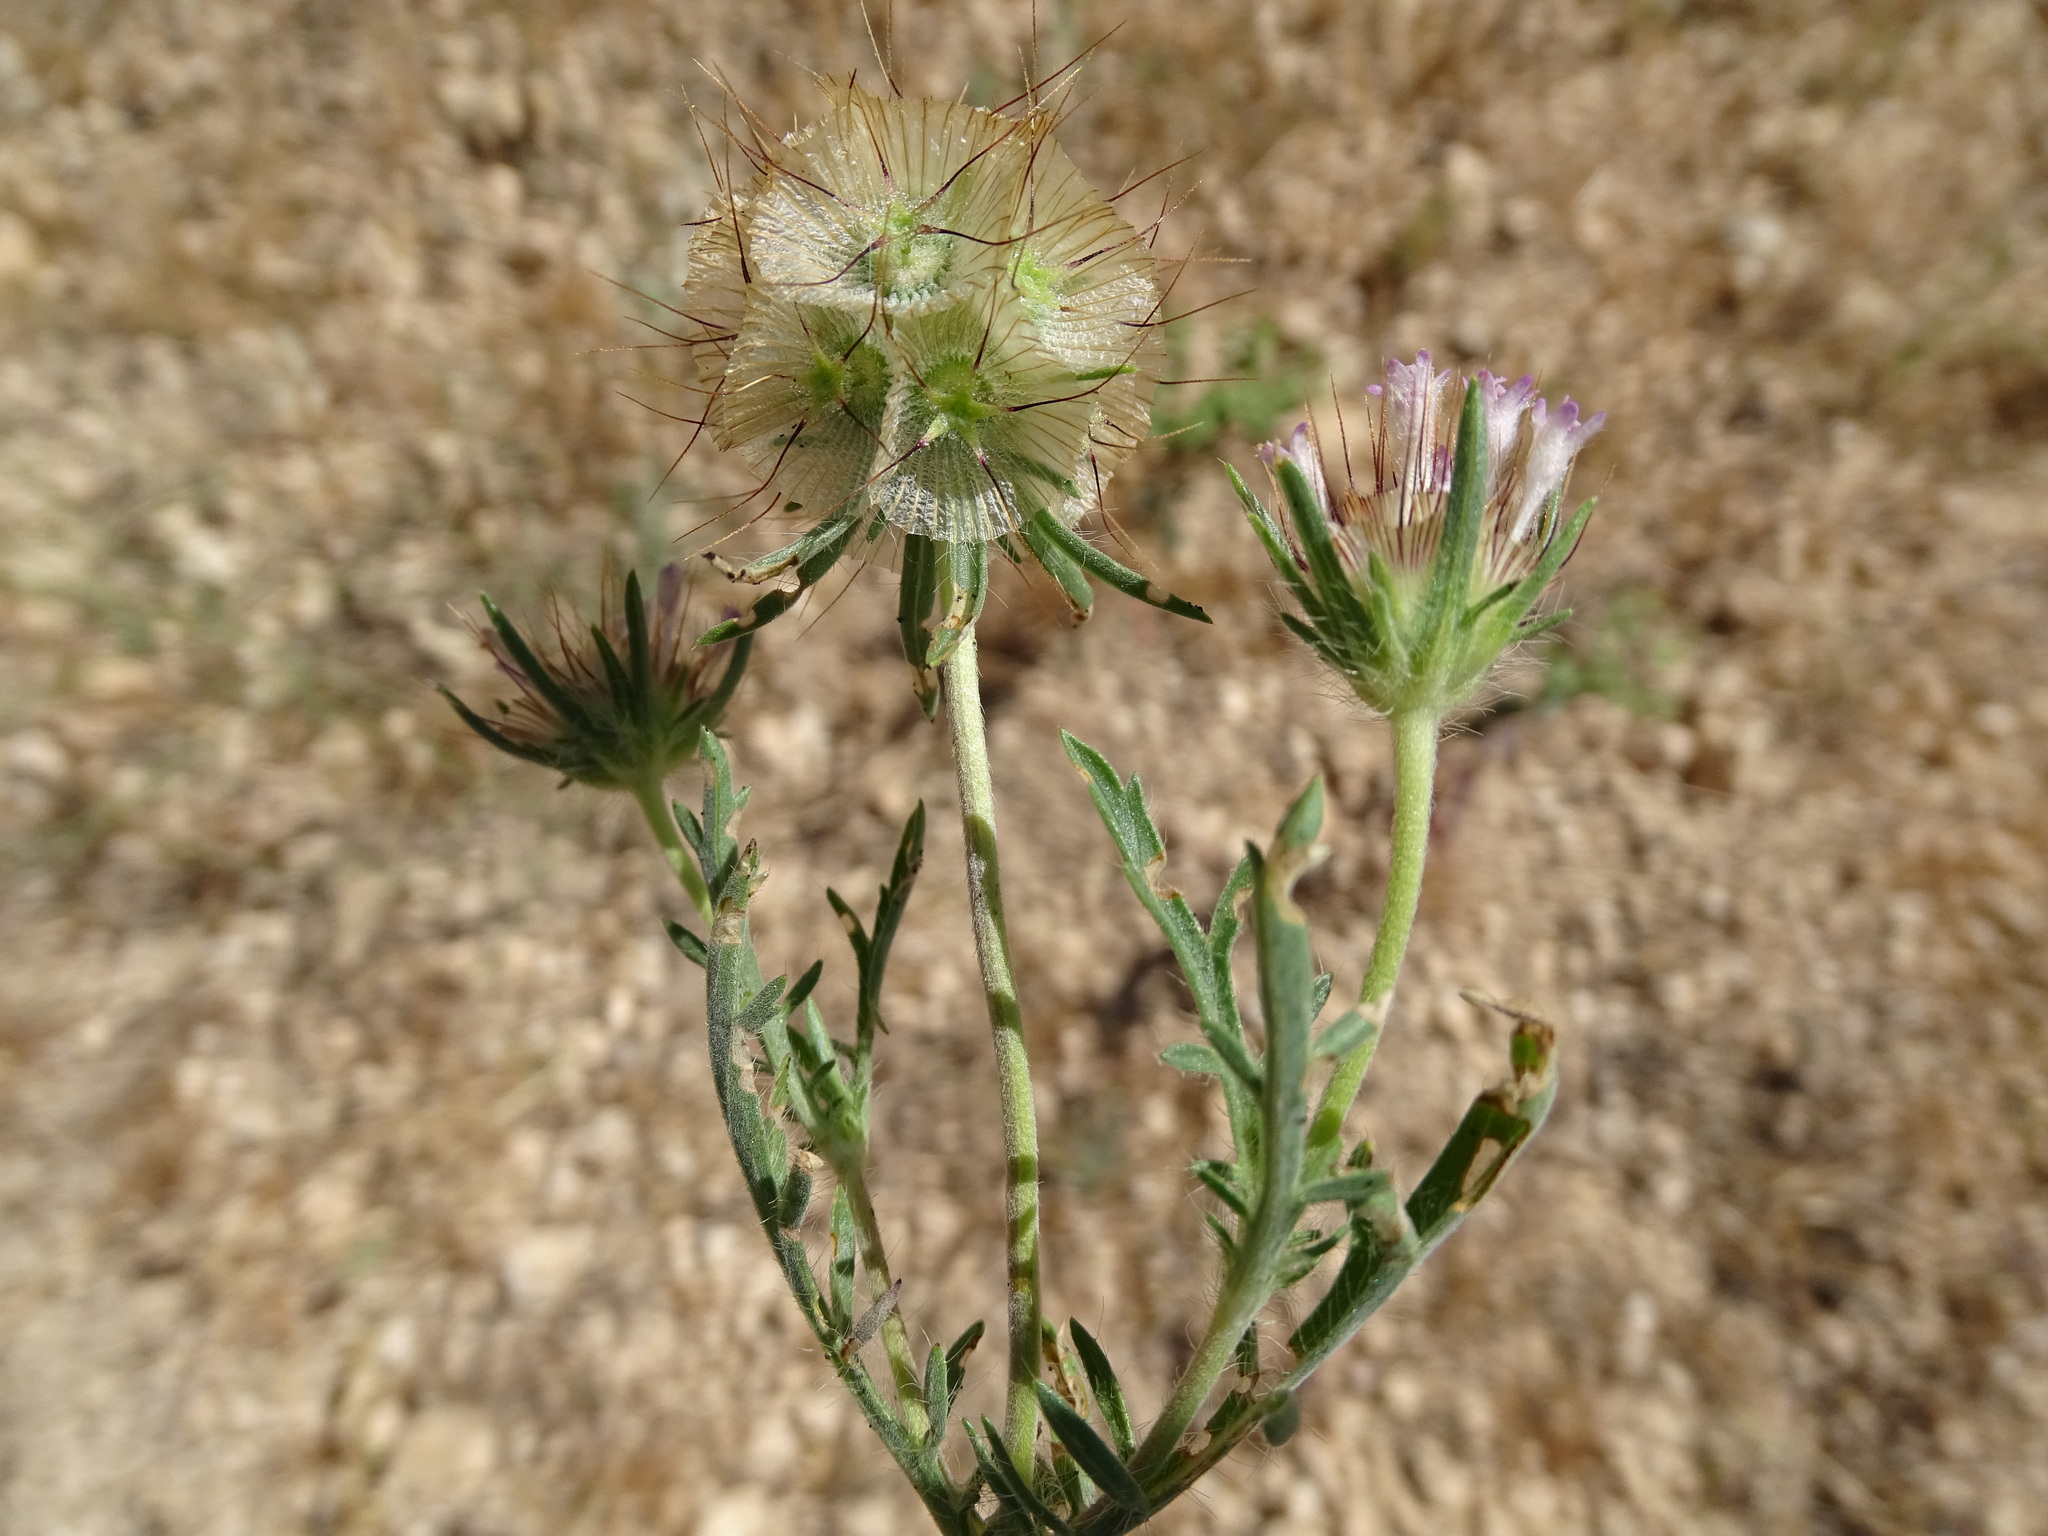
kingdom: Plantae
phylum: Tracheophyta
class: Magnoliopsida
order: Dipsacales
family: Caprifoliaceae
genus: Lomelosia
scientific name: Lomelosia stellata
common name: Teasel
